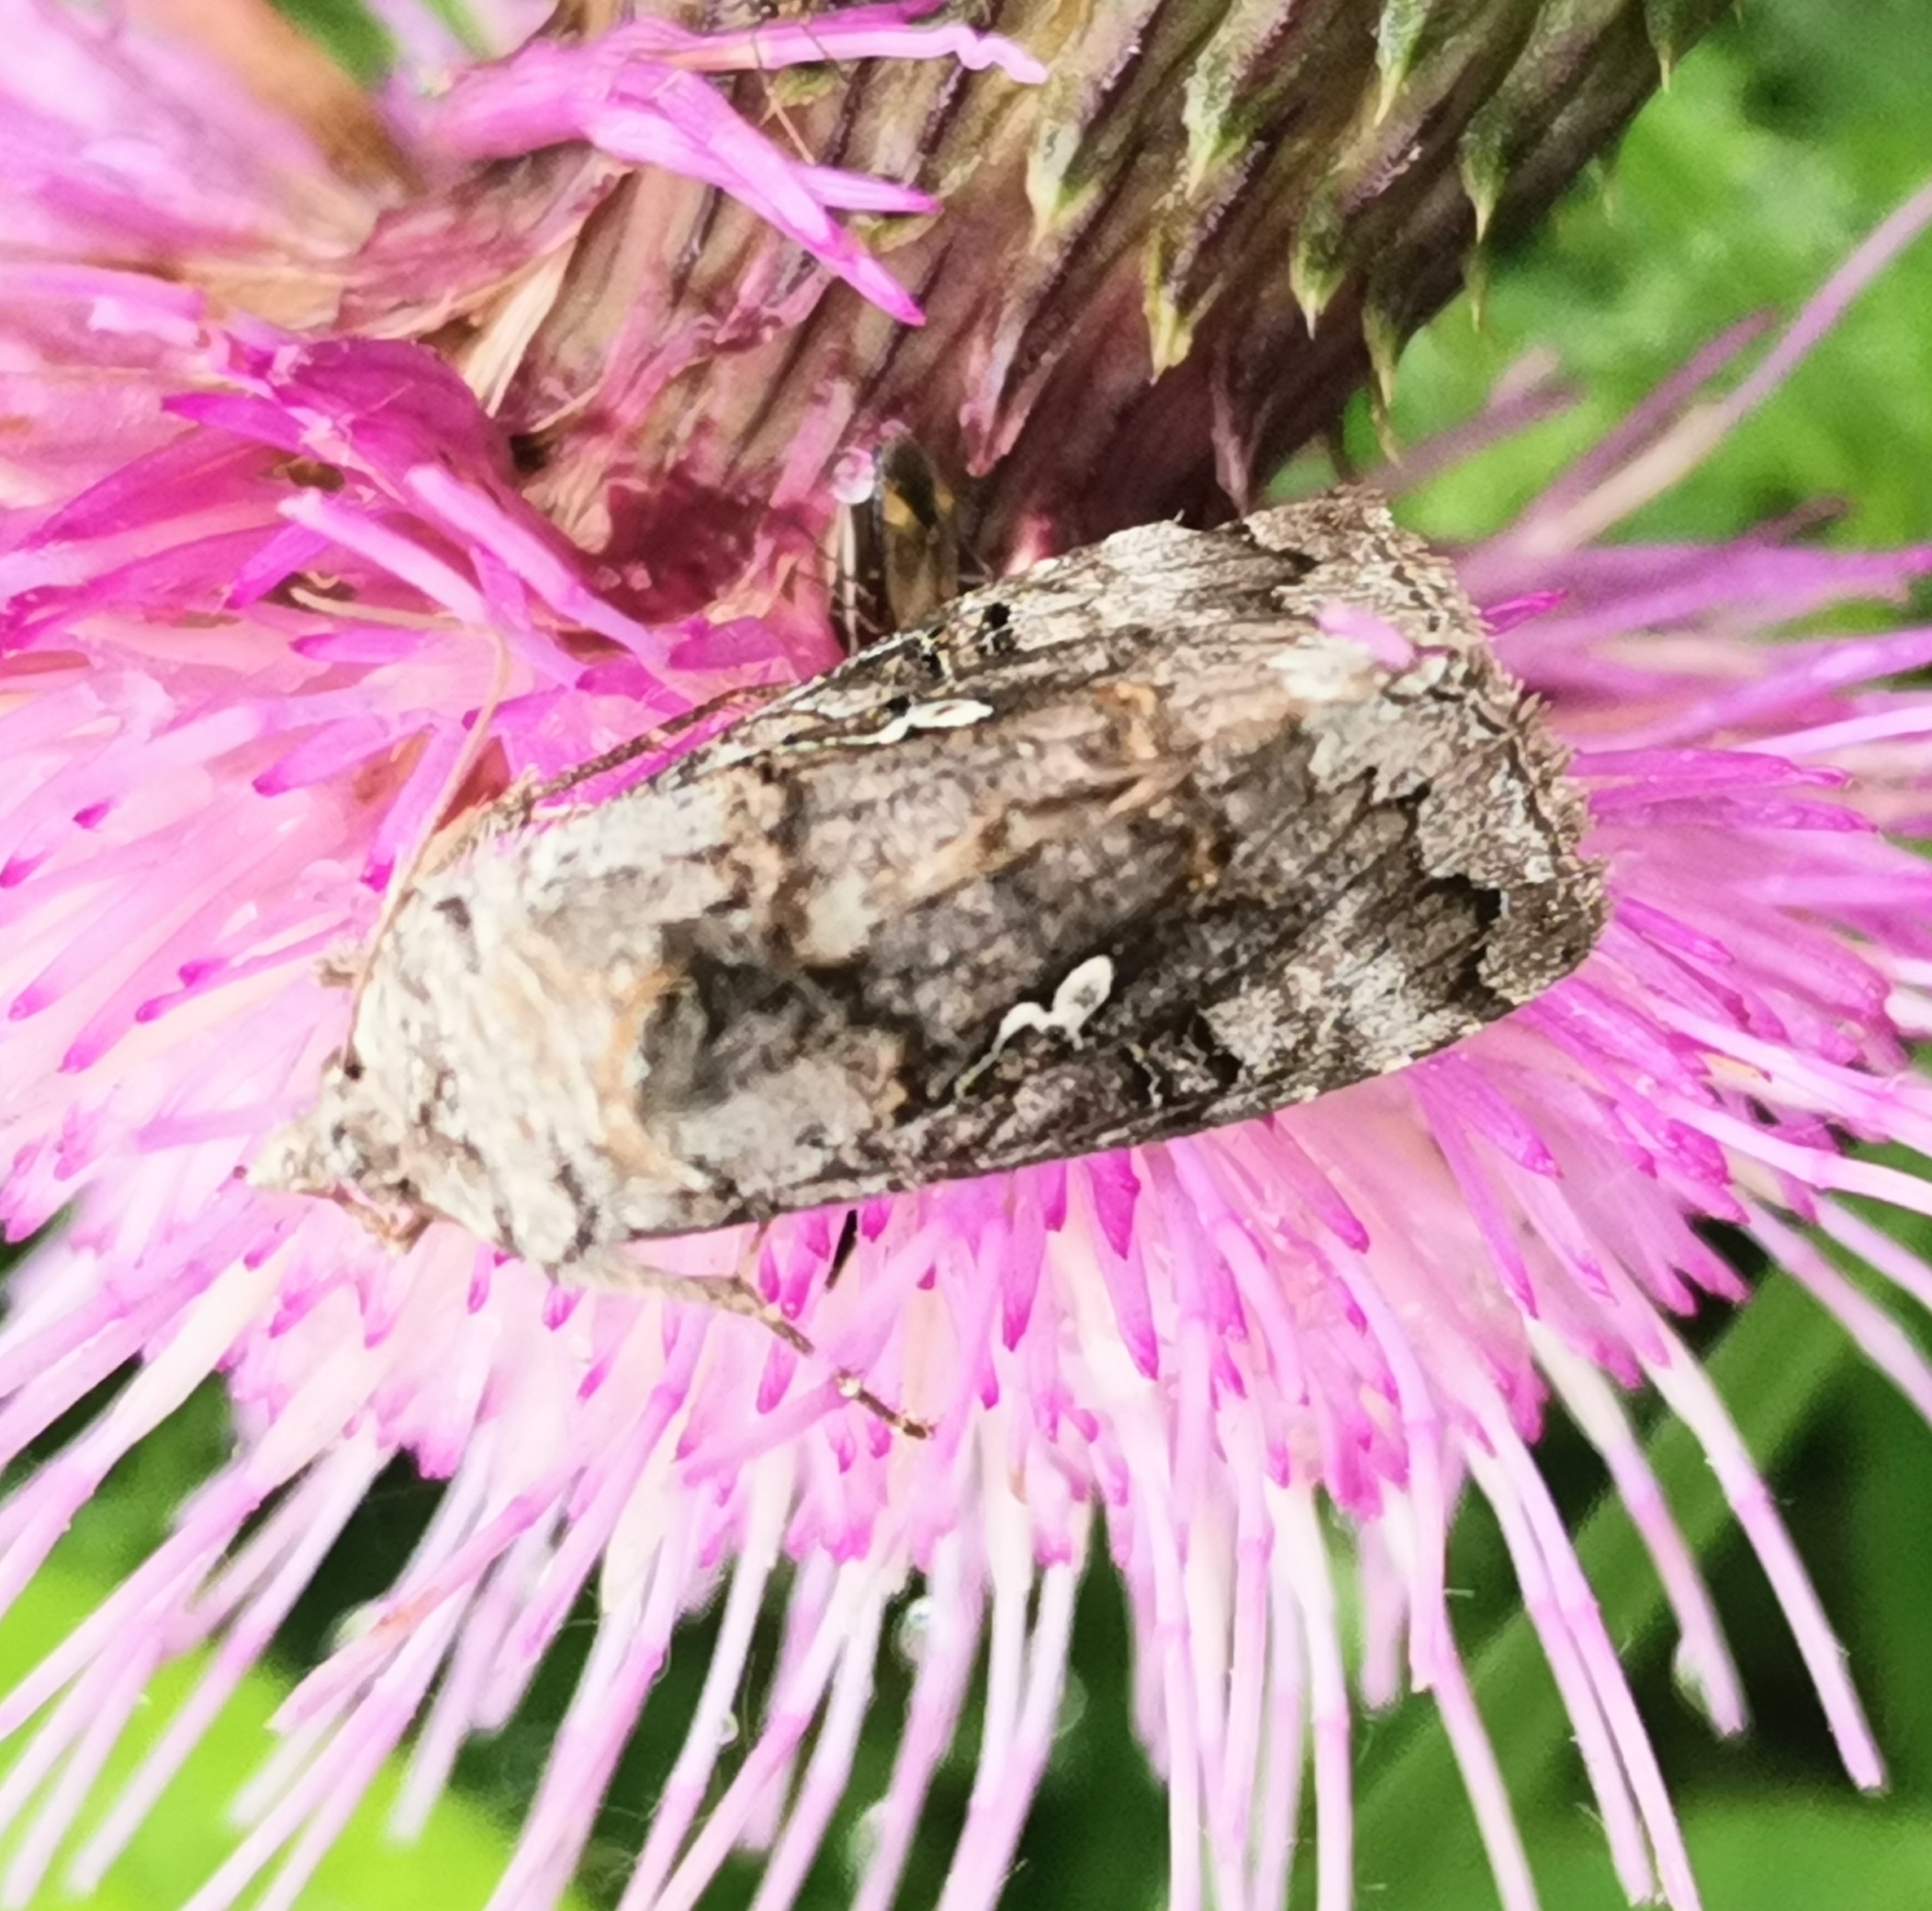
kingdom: Animalia
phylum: Arthropoda
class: Insecta
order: Lepidoptera
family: Noctuidae
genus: Syngrapha
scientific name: Syngrapha interrogationis
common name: Scarce silver y
